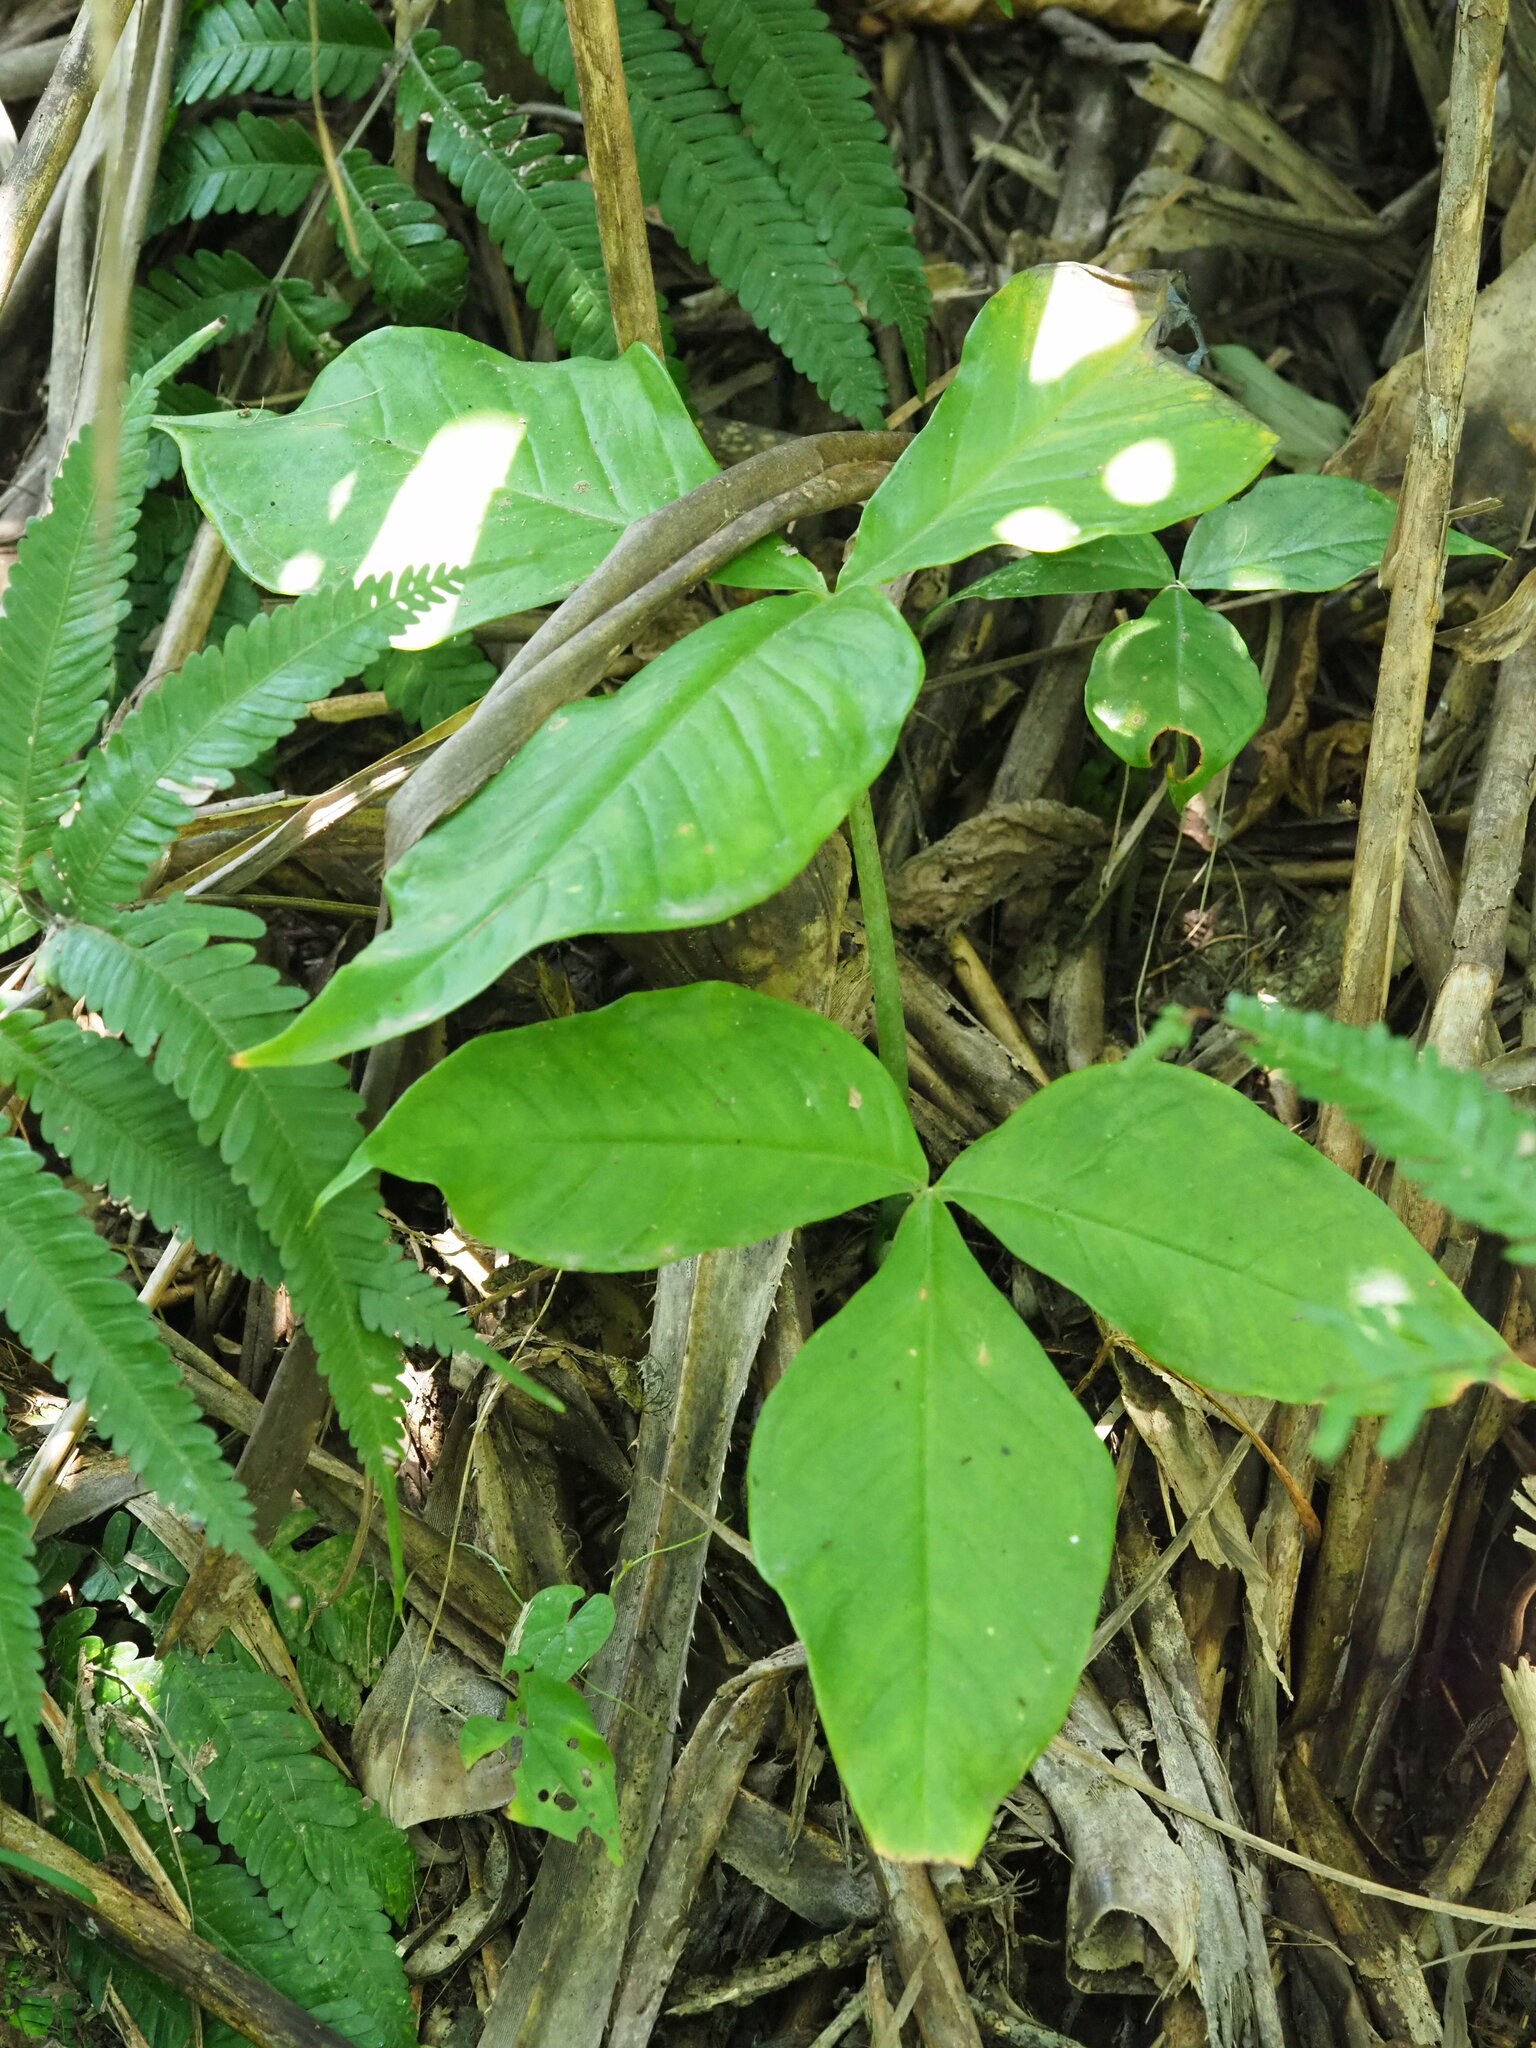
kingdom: Plantae
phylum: Tracheophyta
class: Liliopsida
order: Alismatales
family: Araceae
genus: Arisaema
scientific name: Arisaema ringens
